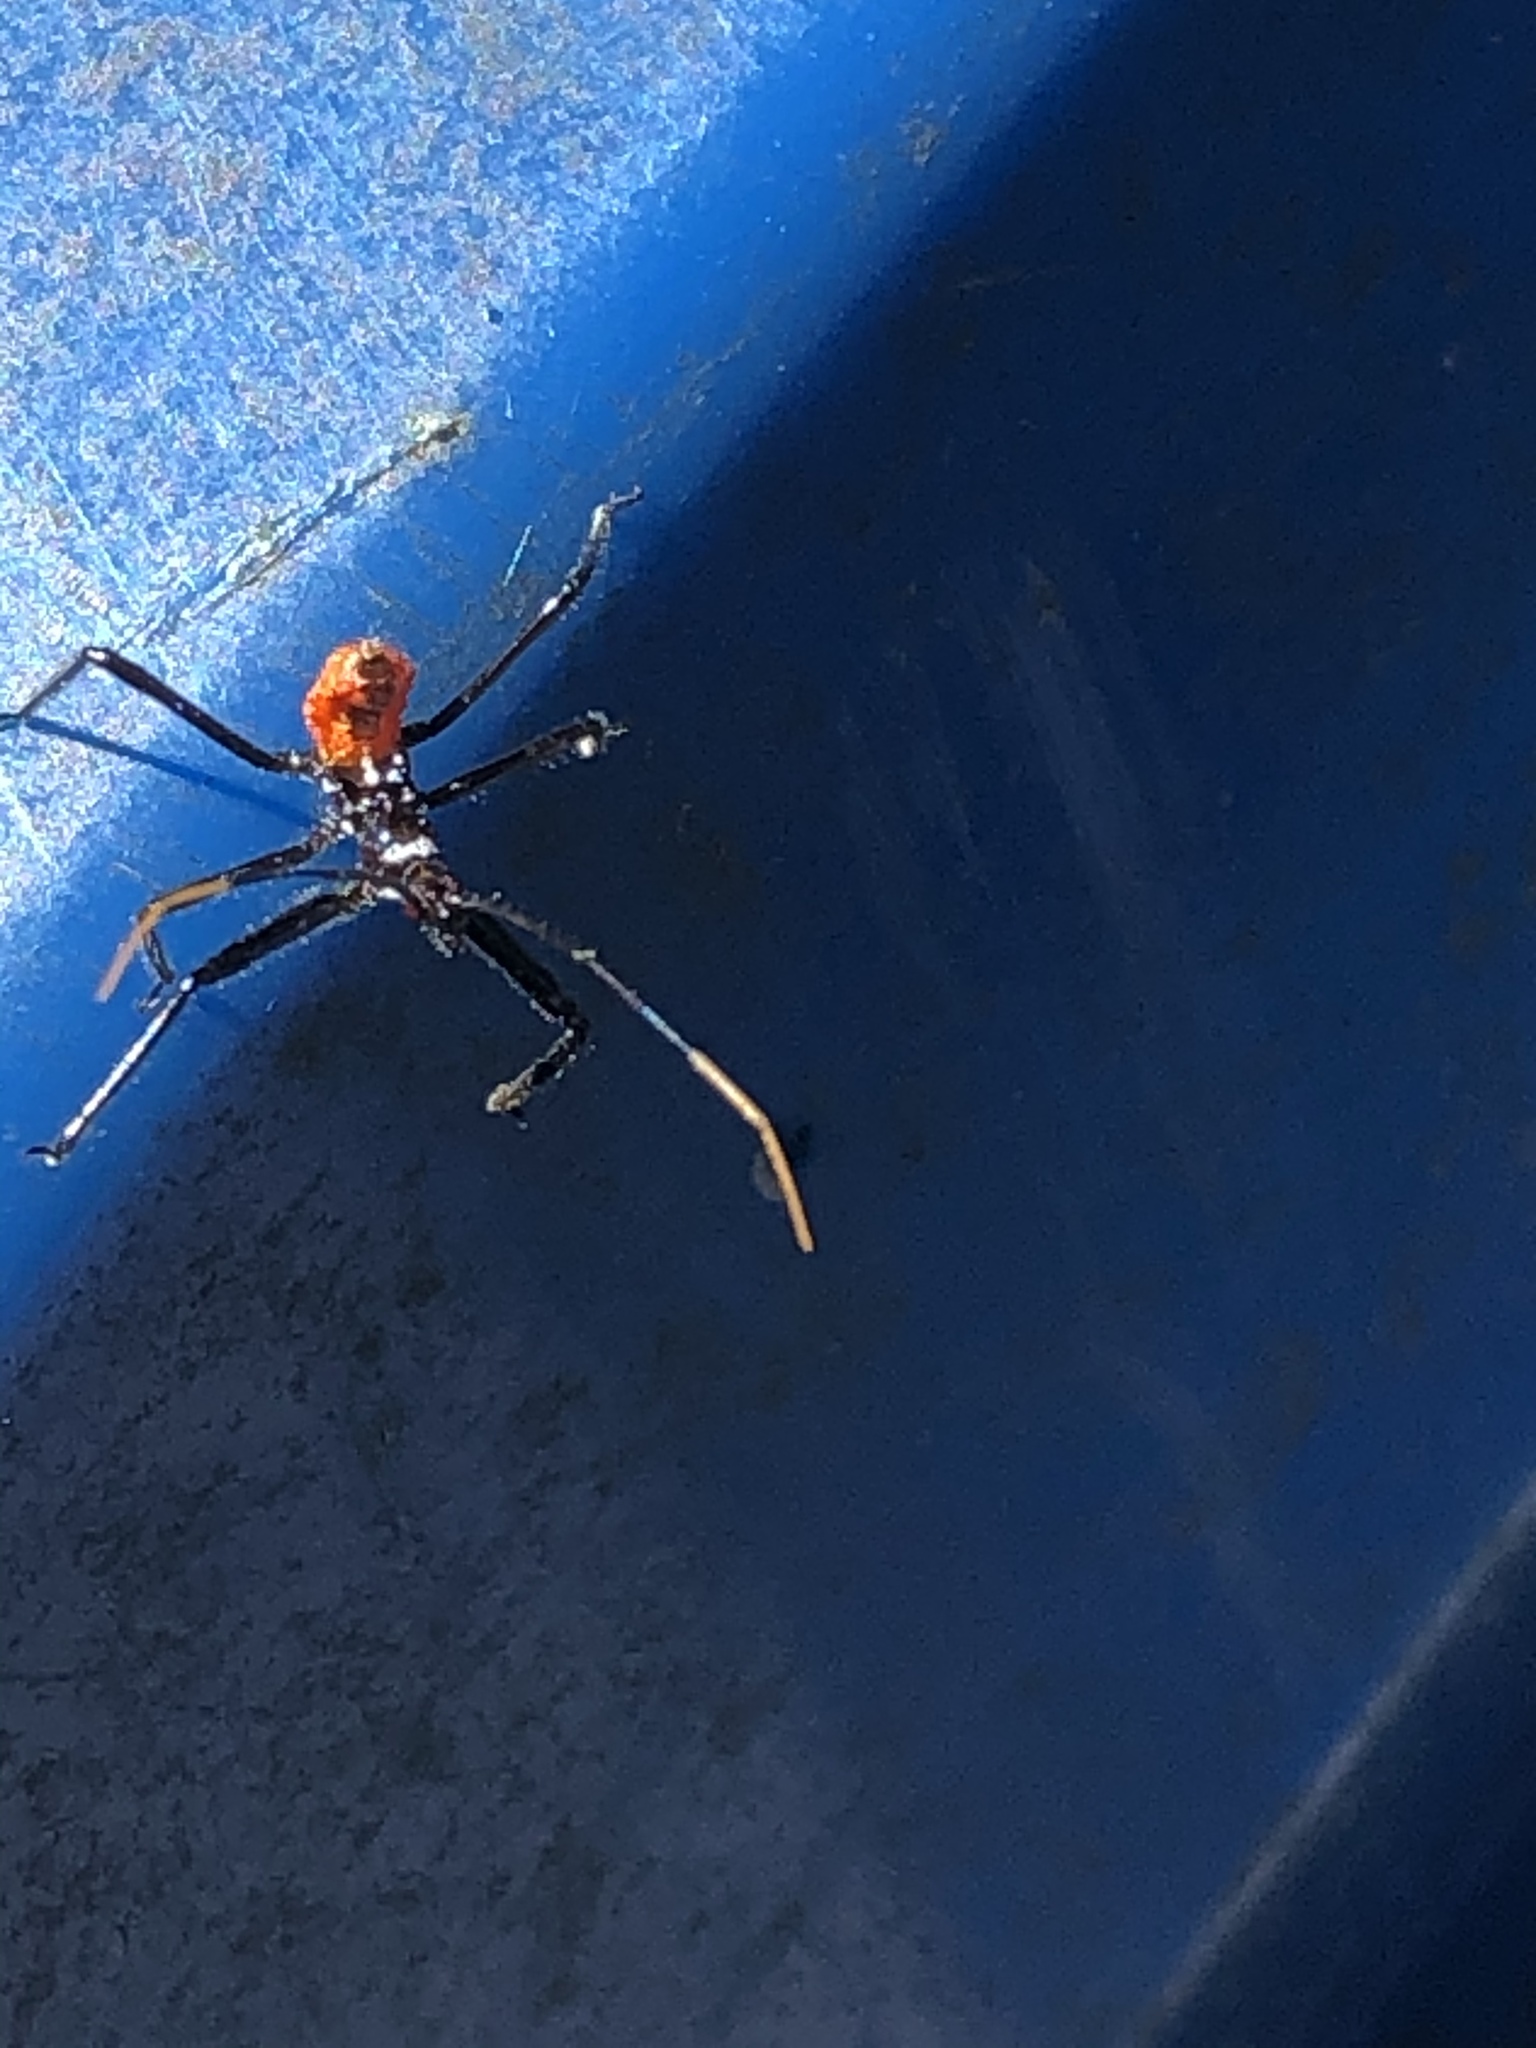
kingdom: Animalia
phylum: Arthropoda
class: Insecta
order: Hemiptera
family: Reduviidae
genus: Arilus
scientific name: Arilus cristatus
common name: North american wheel bug
